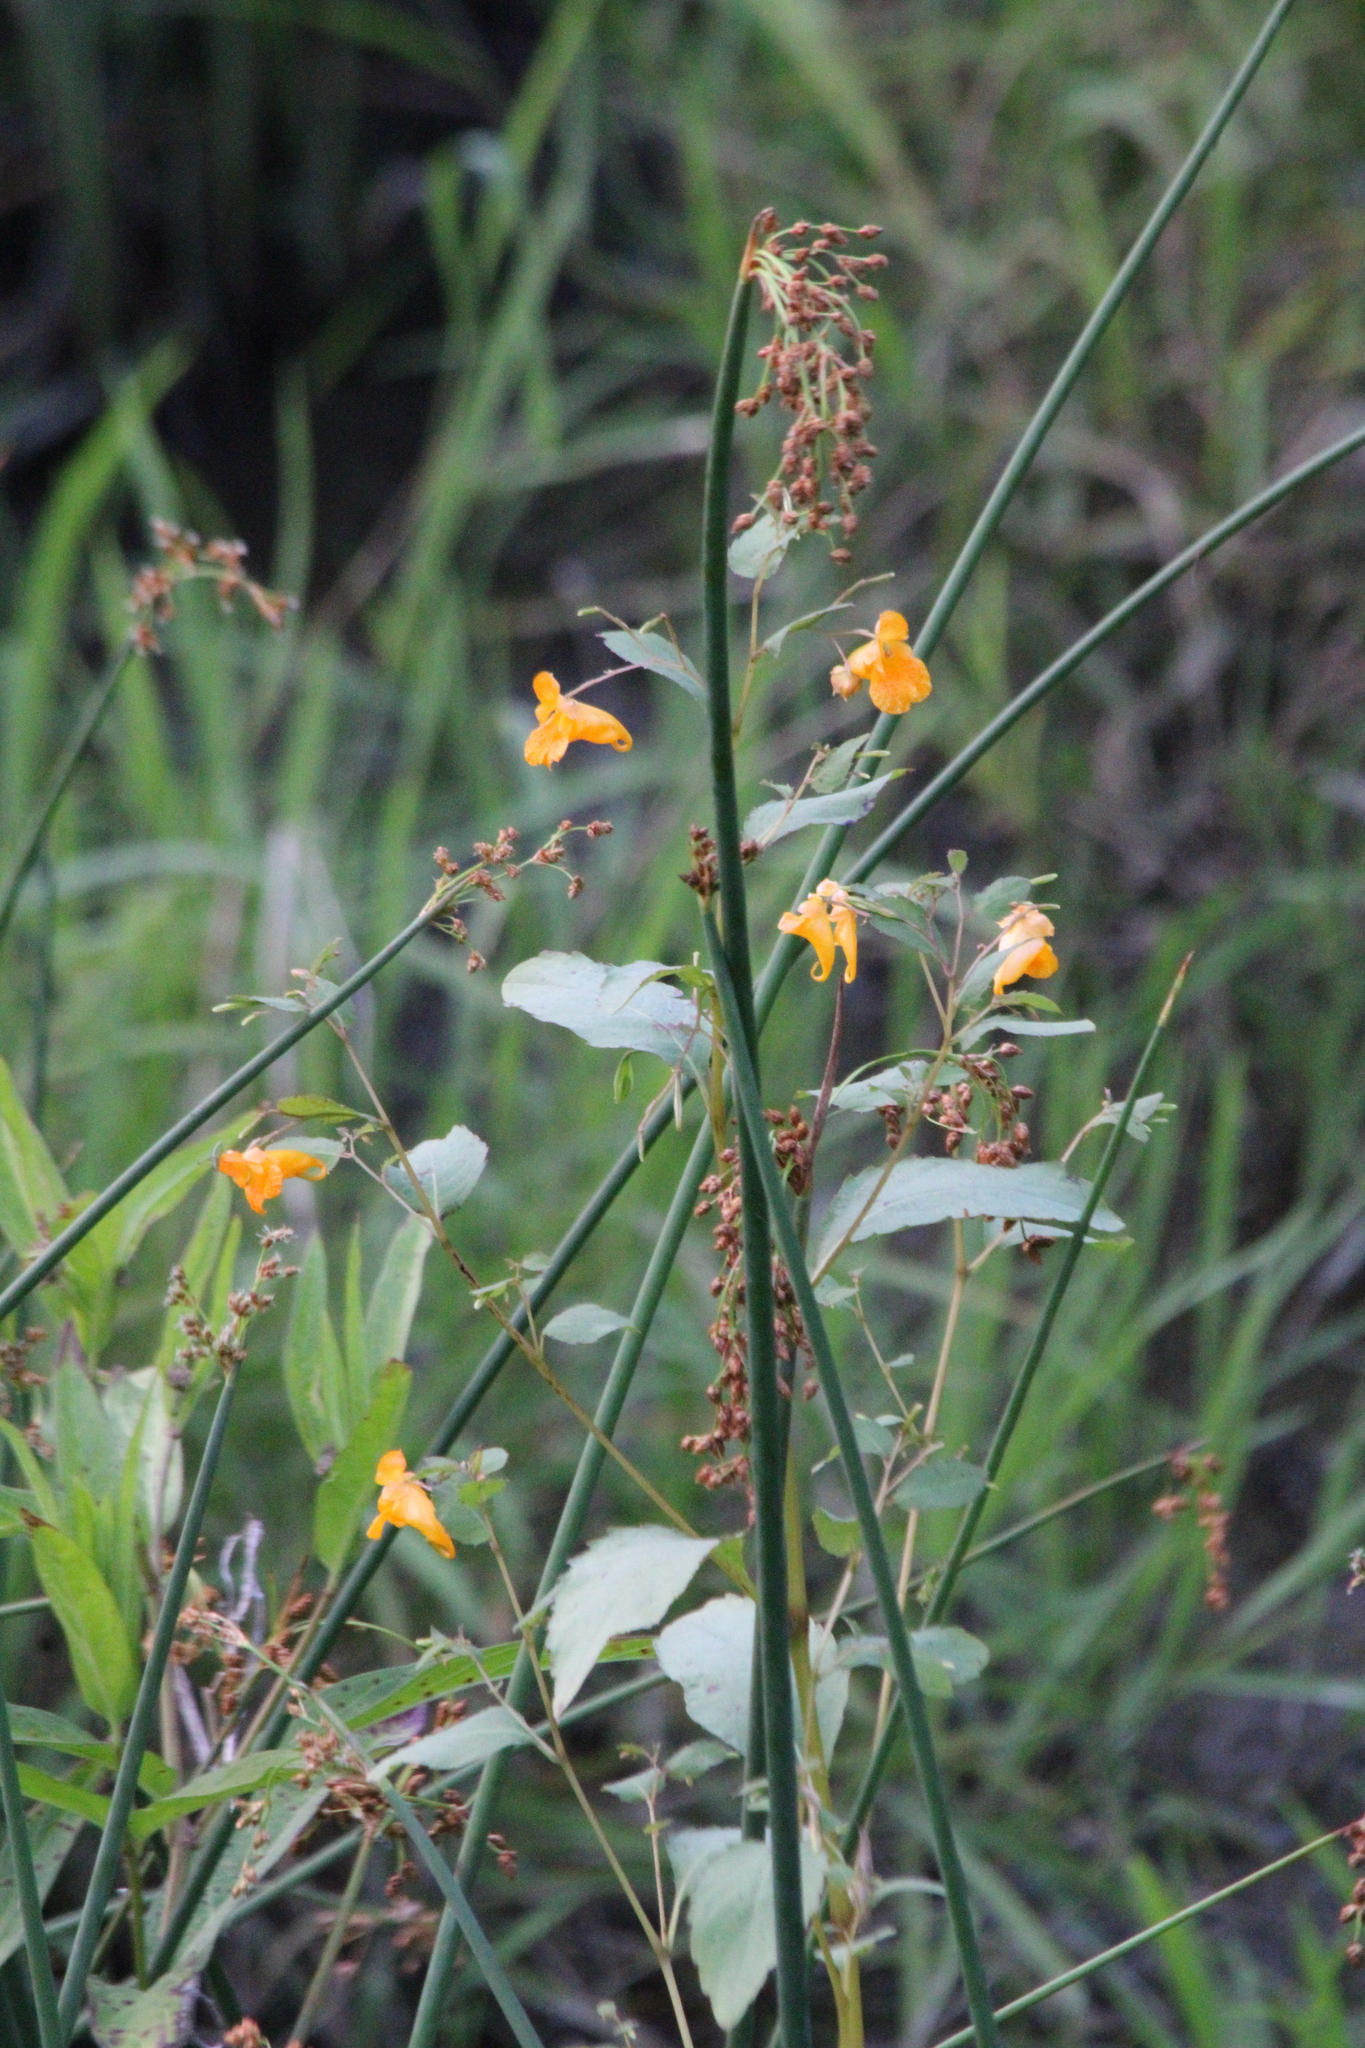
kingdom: Plantae
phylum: Tracheophyta
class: Magnoliopsida
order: Ericales
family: Balsaminaceae
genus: Impatiens
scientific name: Impatiens capensis
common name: Orange balsam
